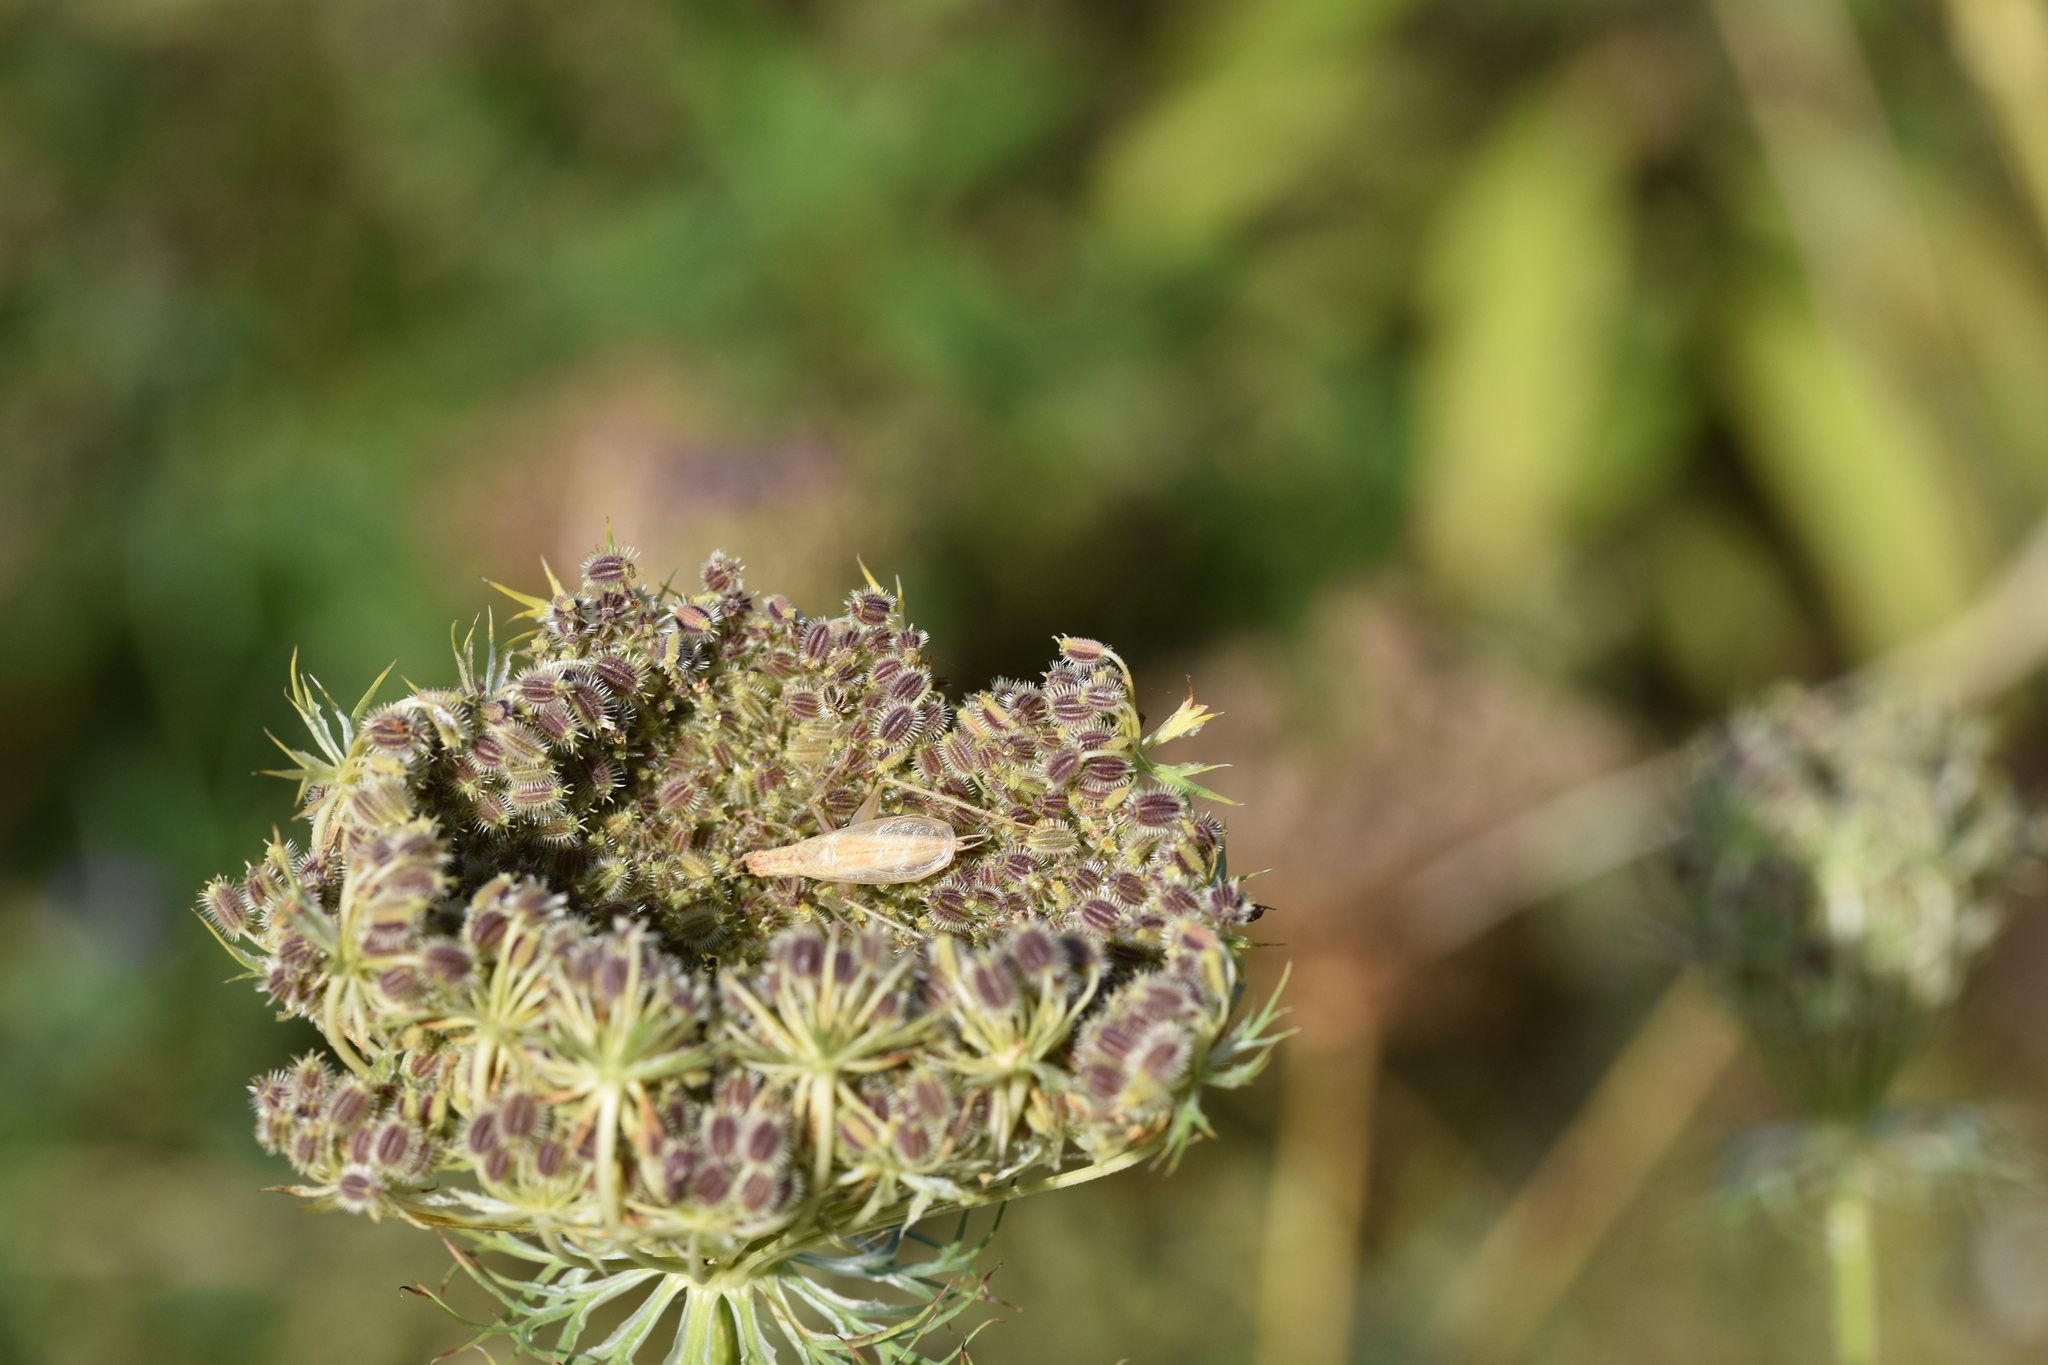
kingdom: Animalia
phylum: Arthropoda
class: Insecta
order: Orthoptera
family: Gryllidae
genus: Oecanthus
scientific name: Oecanthus pellucens
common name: Tree-cricket
